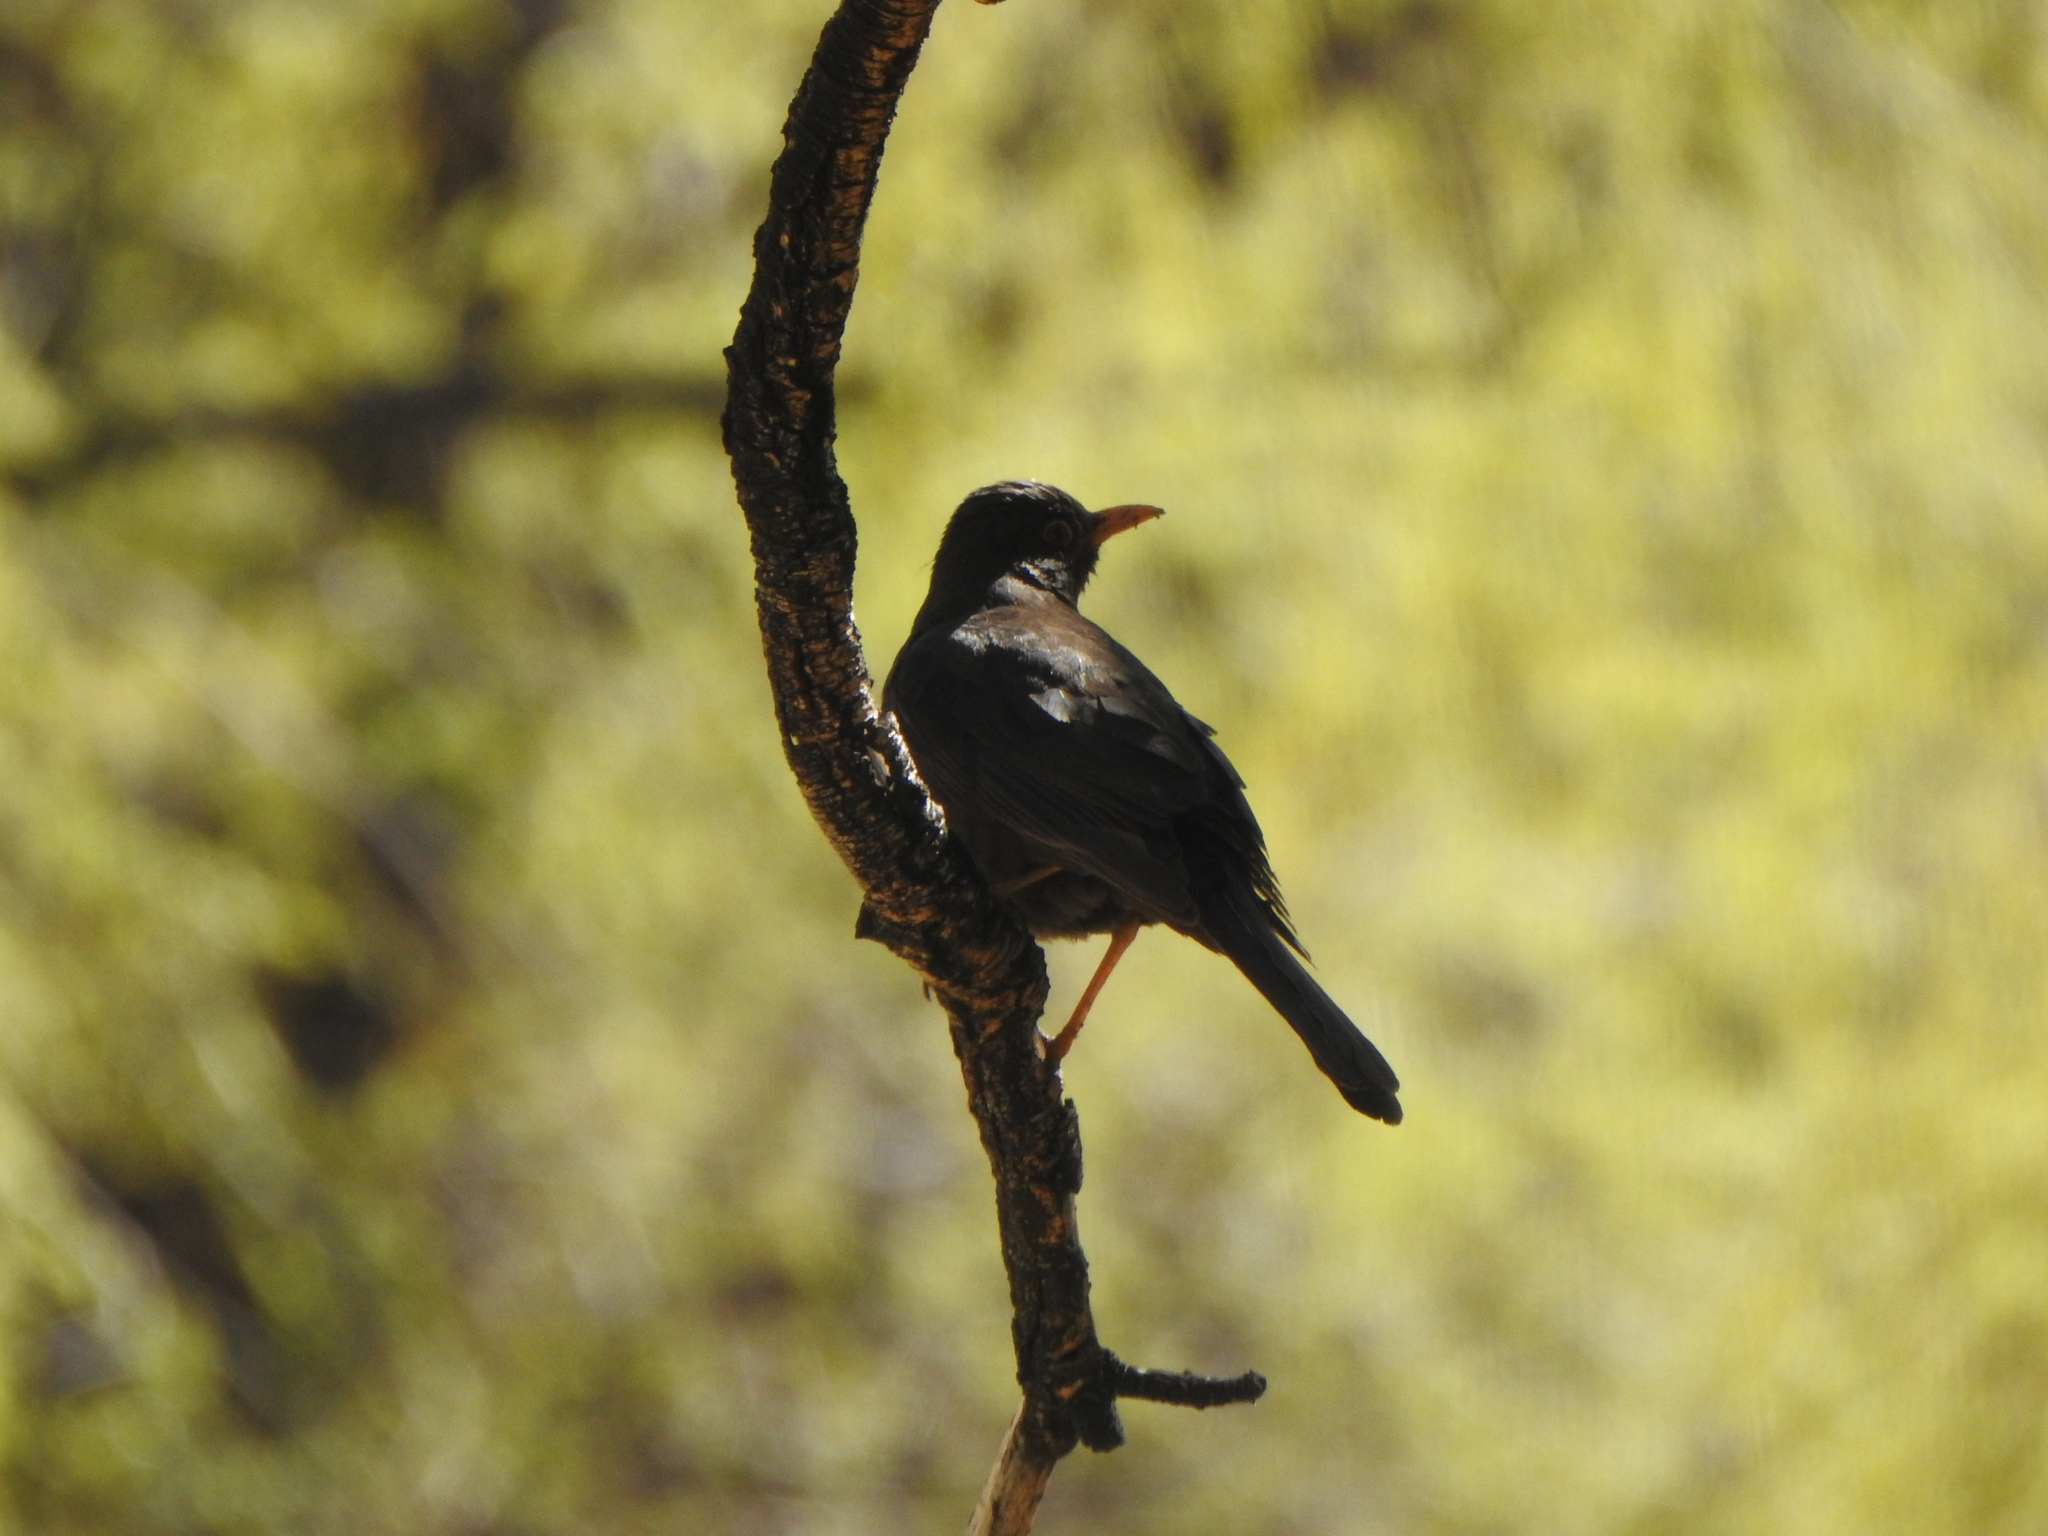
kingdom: Animalia
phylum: Chordata
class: Aves
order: Passeriformes
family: Turdidae
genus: Turdus
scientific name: Turdus chiguanco
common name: Chiguanco thrush
